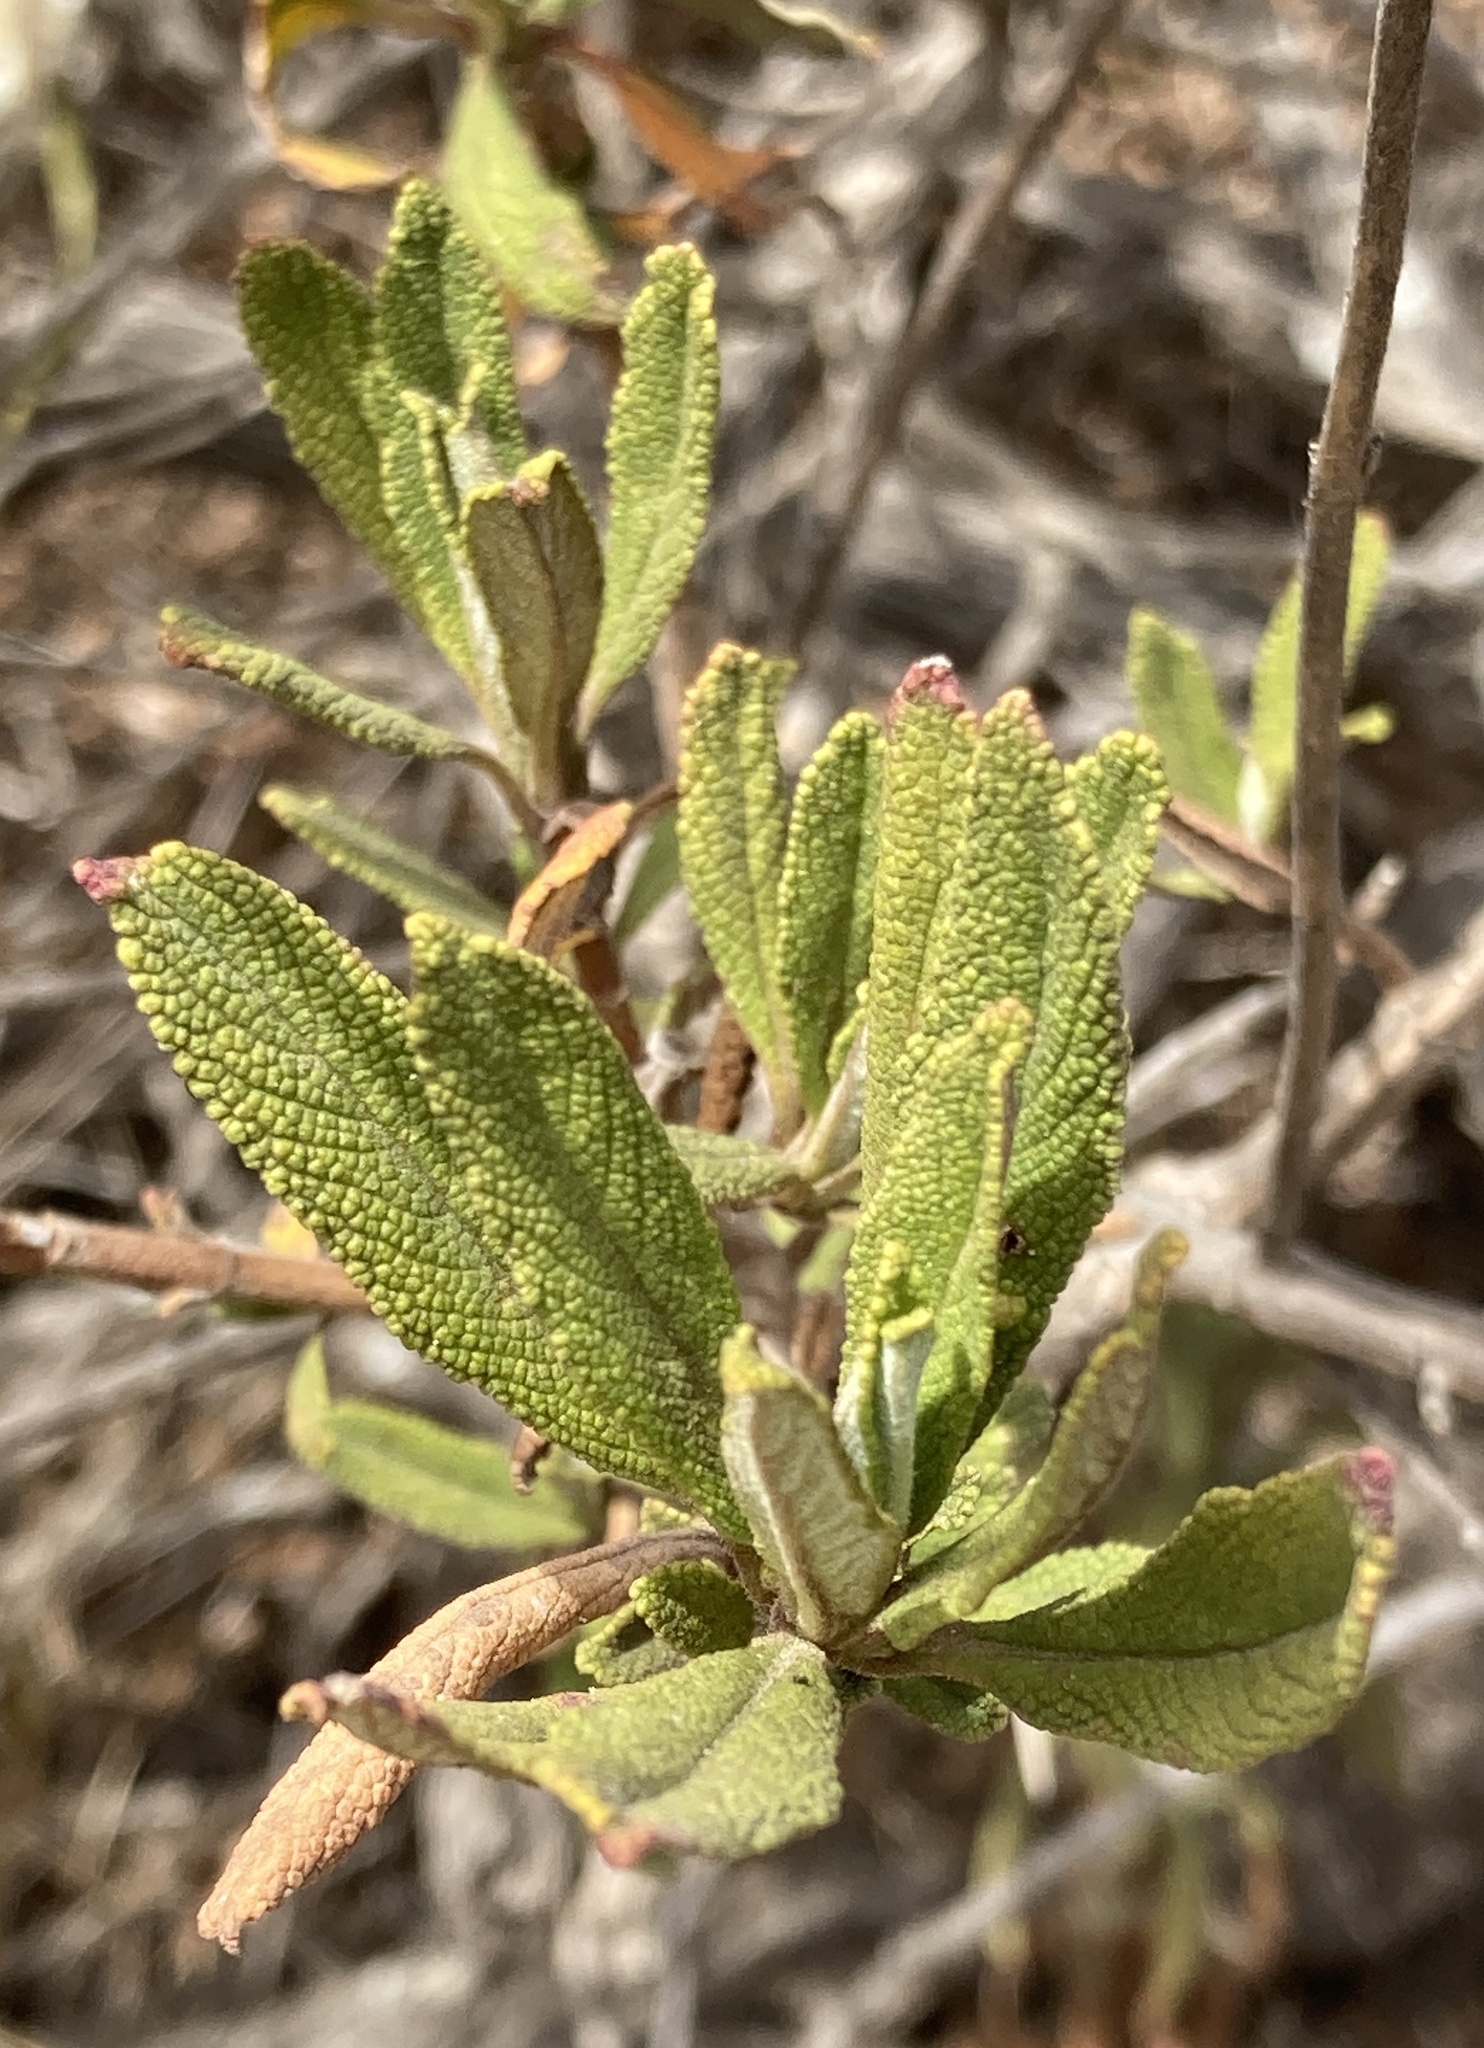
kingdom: Plantae
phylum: Tracheophyta
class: Magnoliopsida
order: Lamiales
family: Lamiaceae
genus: Salvia
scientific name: Salvia mellifera
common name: Black sage
